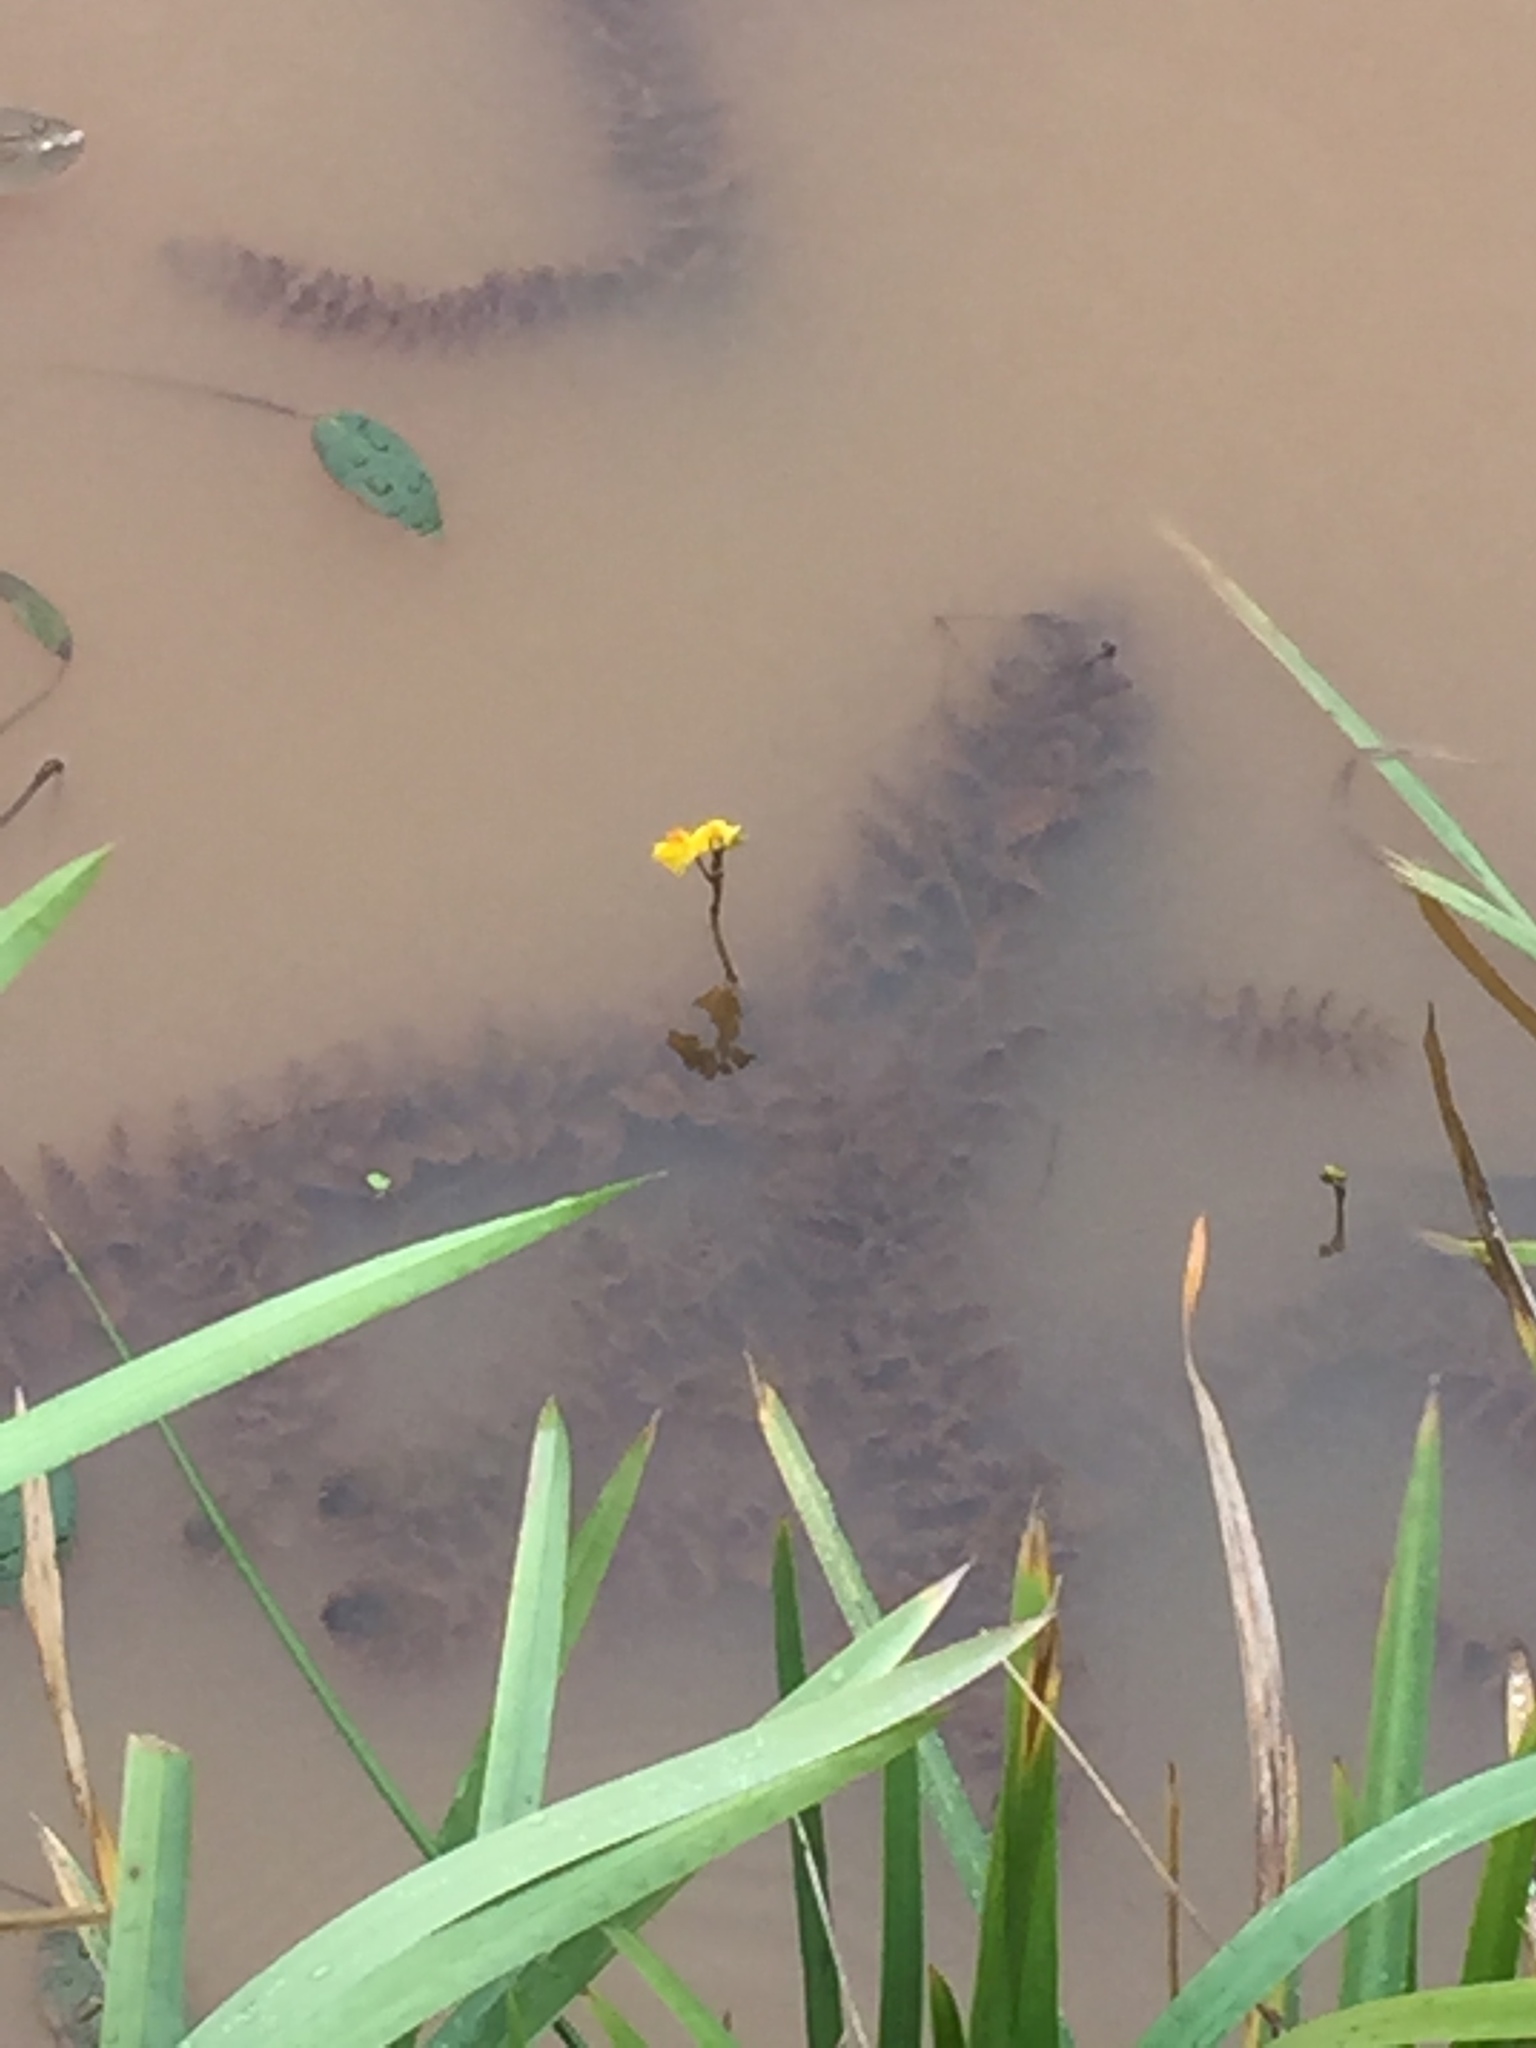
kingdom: Plantae
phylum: Tracheophyta
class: Liliopsida
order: Alismatales
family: Potamogetonaceae
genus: Potamogeton
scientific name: Potamogeton natans
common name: Broad-leaved pondweed
